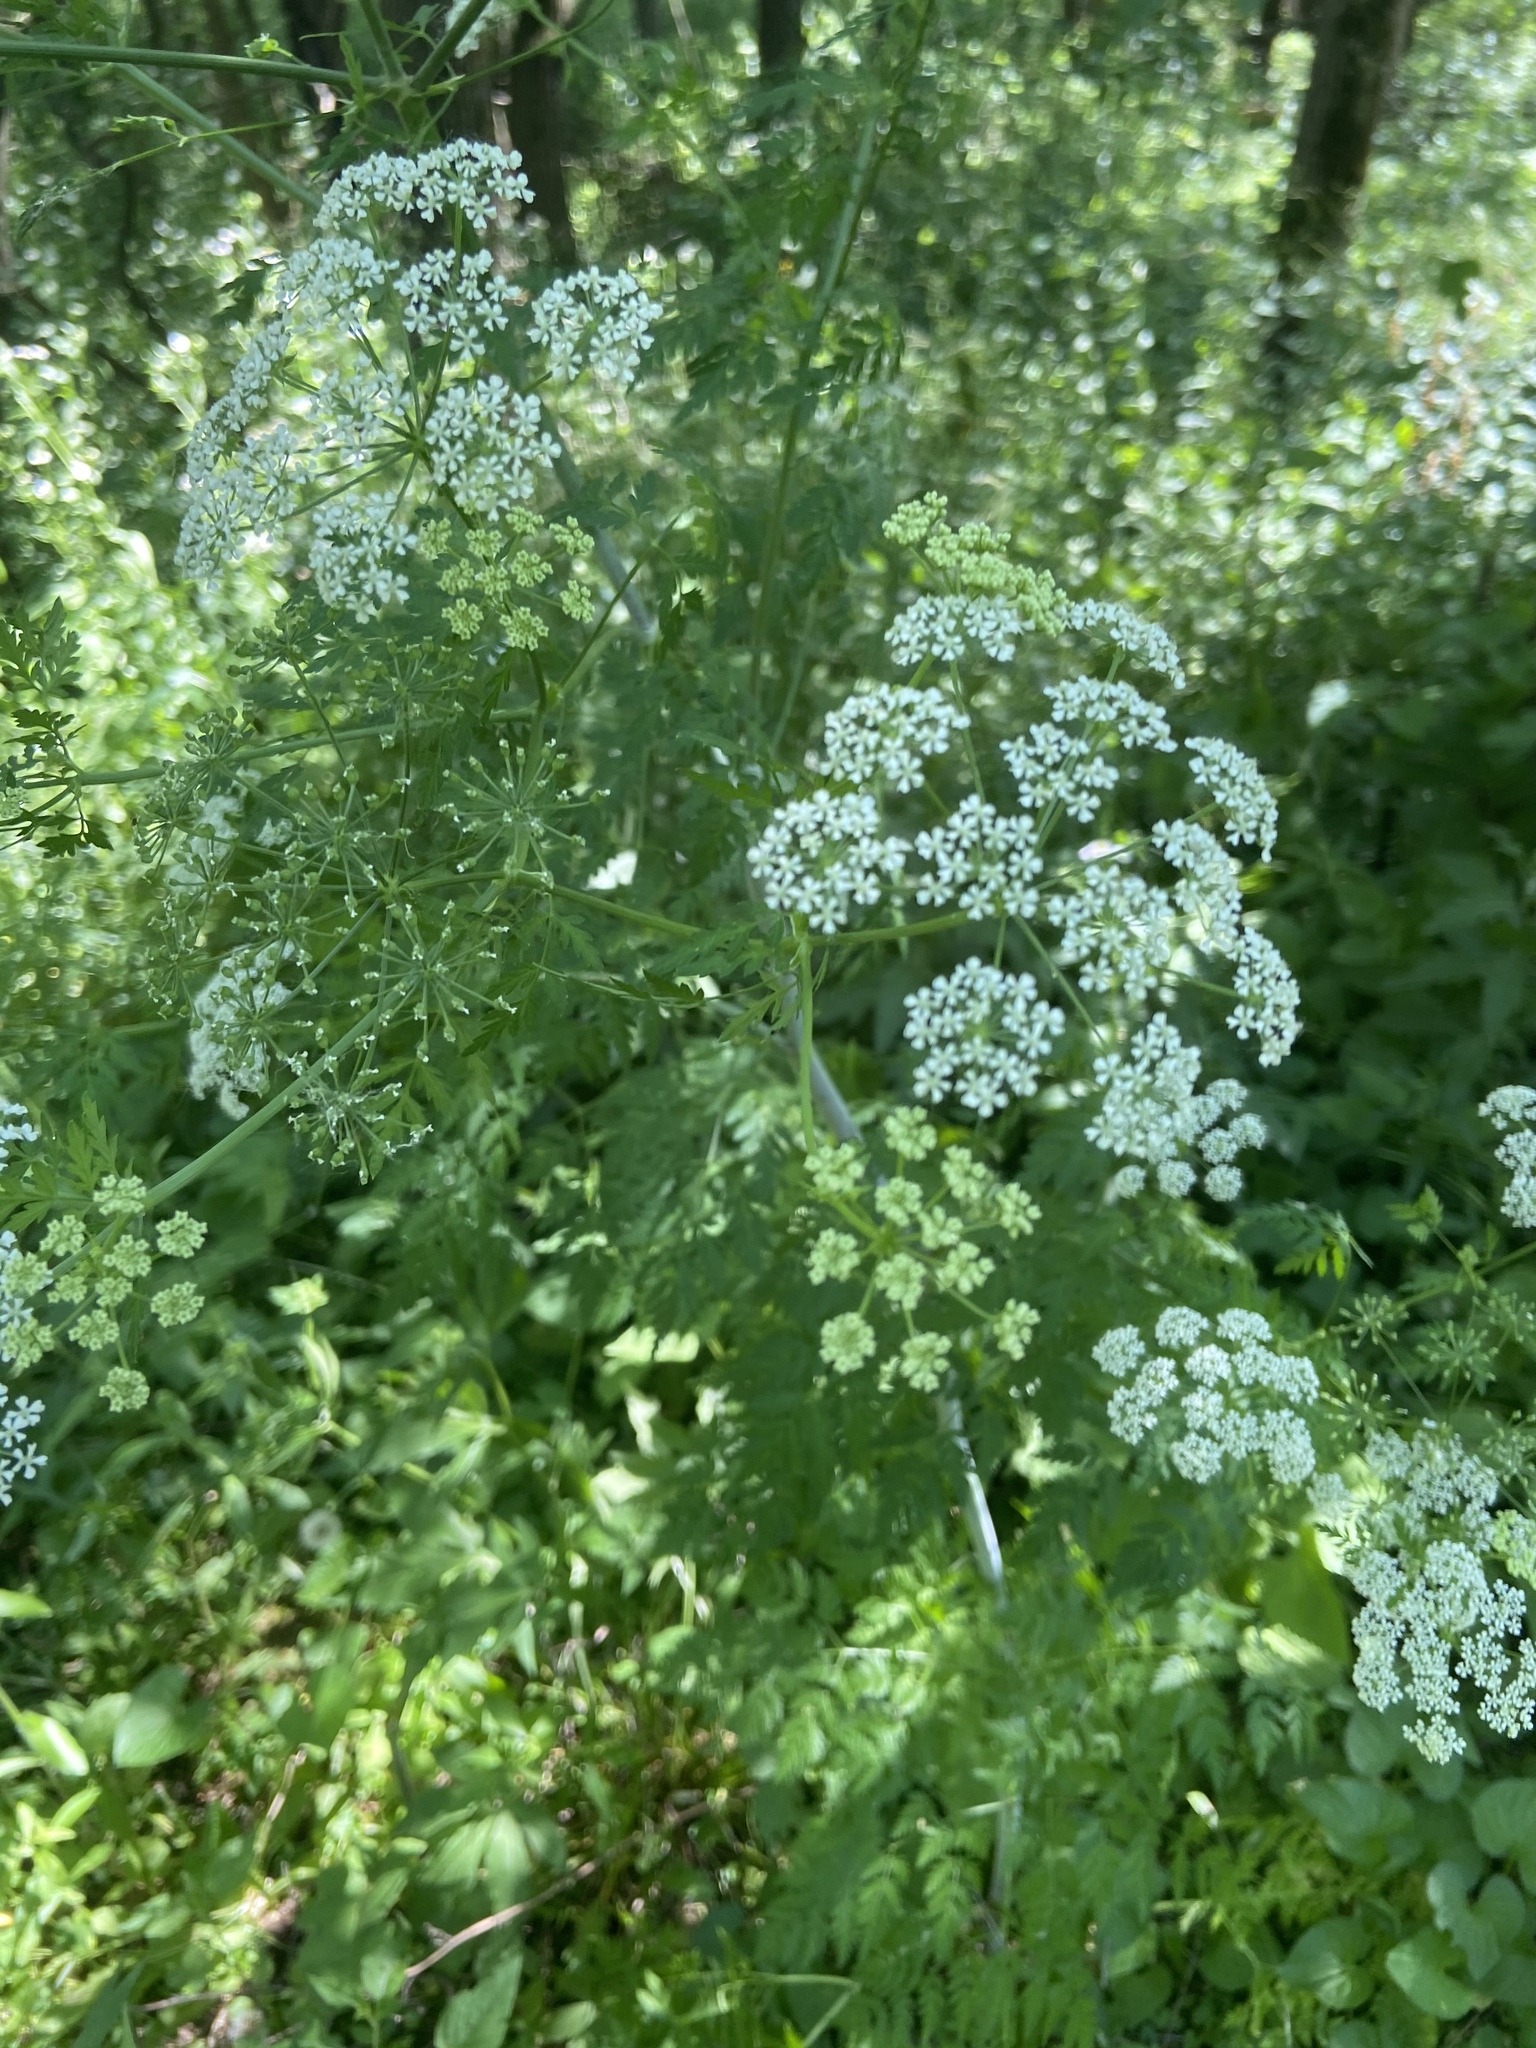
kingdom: Plantae
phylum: Tracheophyta
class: Magnoliopsida
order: Apiales
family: Apiaceae
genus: Anthriscus
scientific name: Anthriscus sylvestris
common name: Cow parsley
